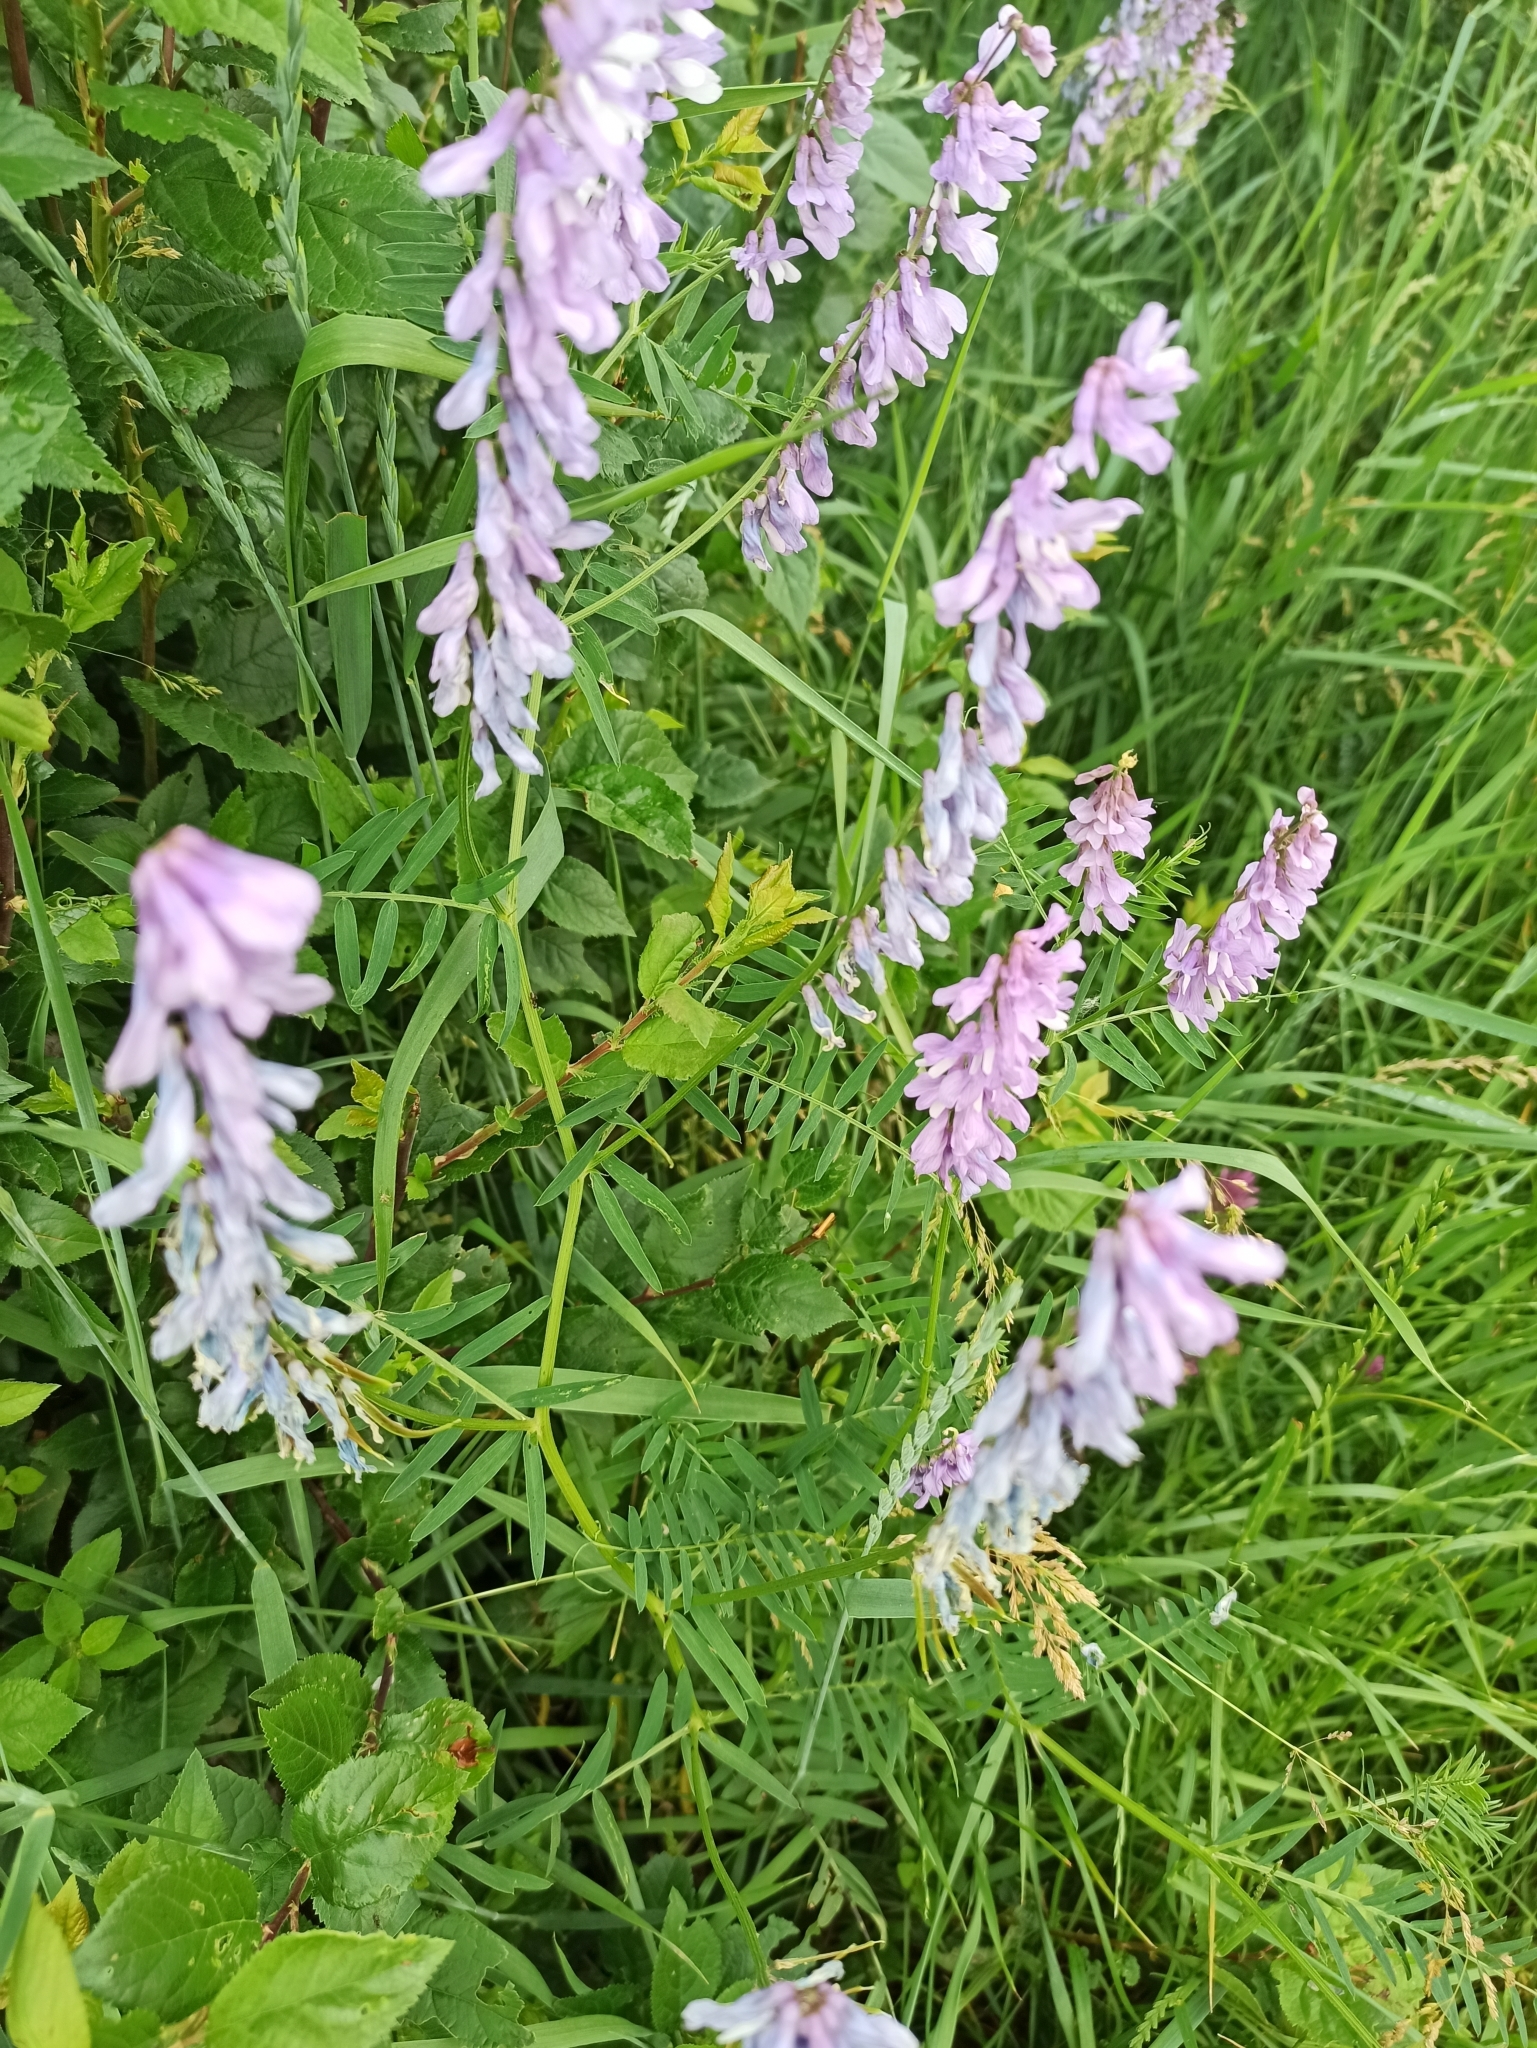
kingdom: Plantae
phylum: Tracheophyta
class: Magnoliopsida
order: Fabales
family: Fabaceae
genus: Vicia
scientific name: Vicia tenuifolia
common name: Fine-leaved vetch
